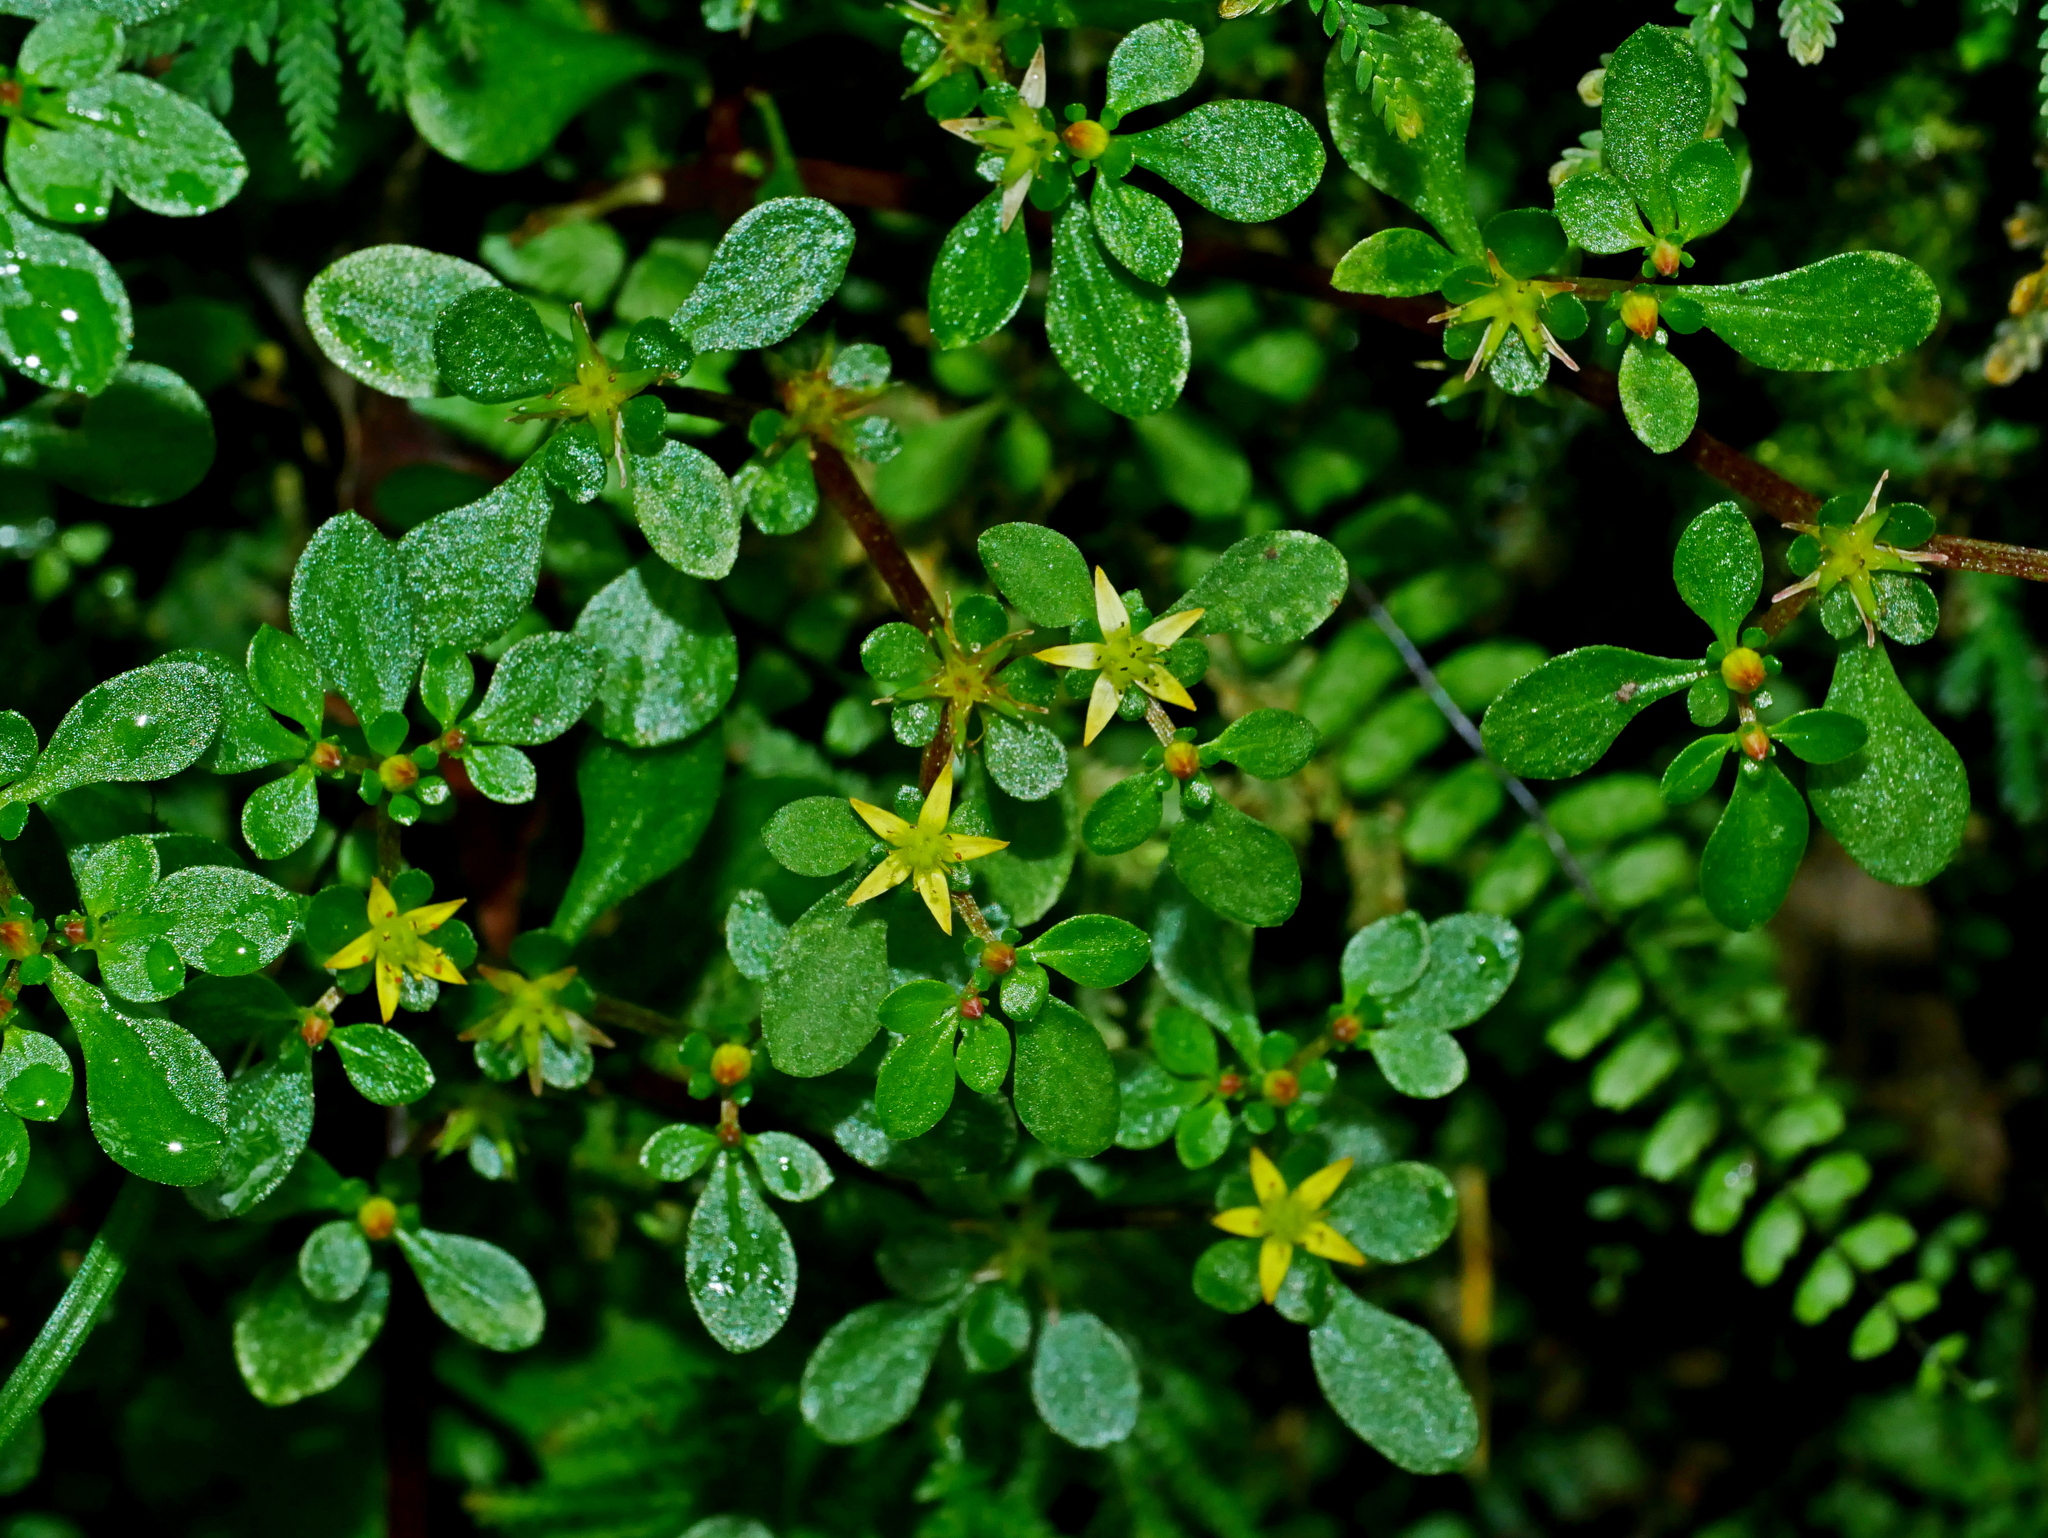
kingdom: Plantae
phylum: Tracheophyta
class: Magnoliopsida
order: Saxifragales
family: Crassulaceae
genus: Sedum
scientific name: Sedum actinocarpum
